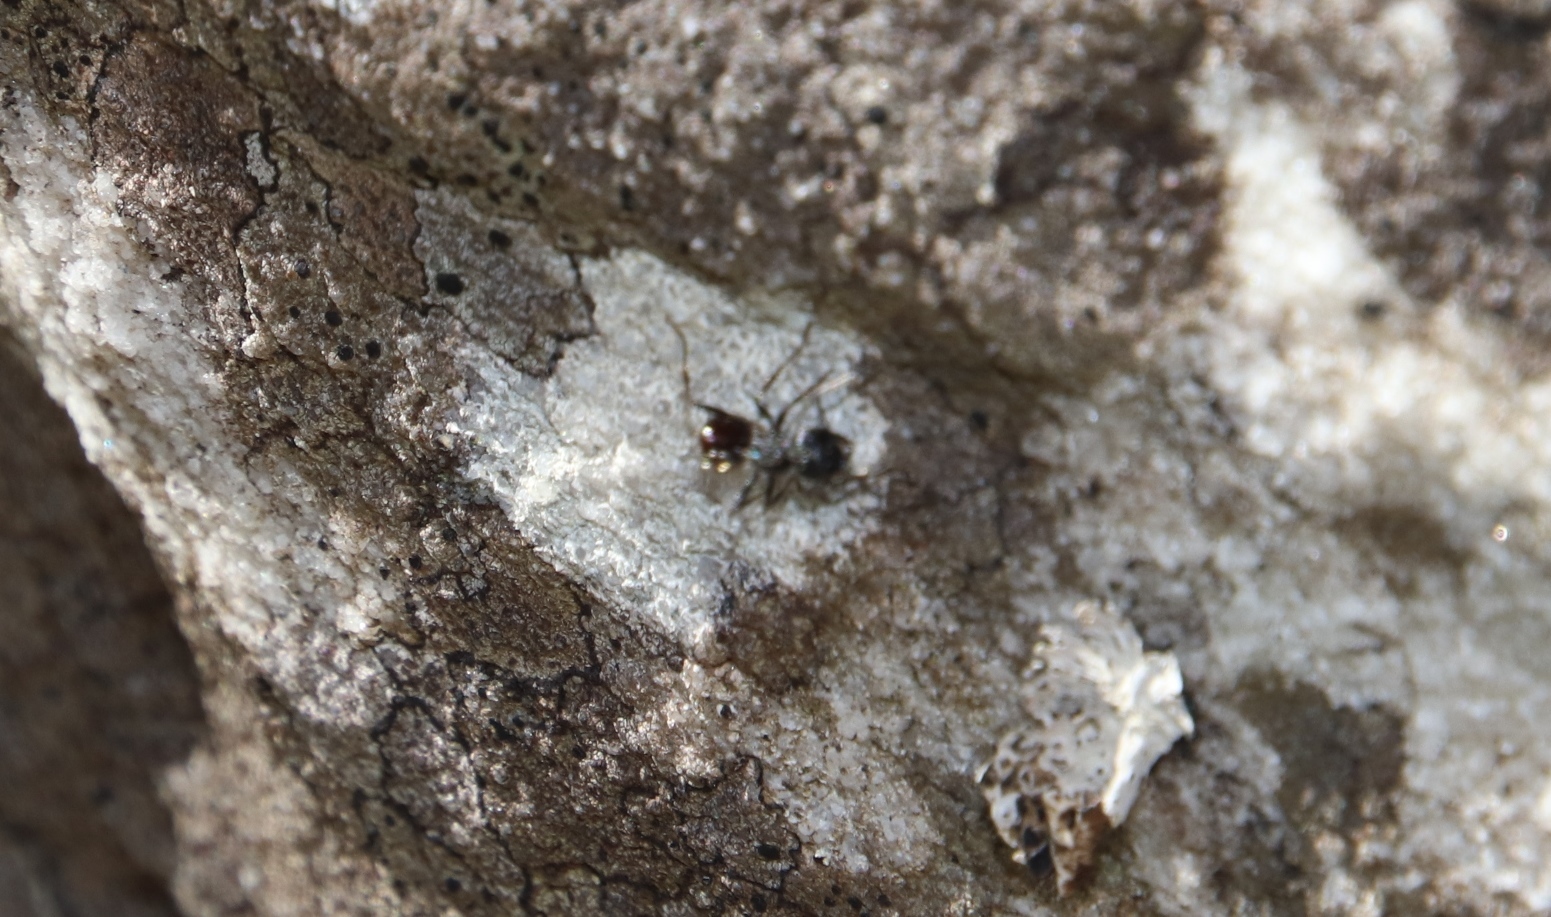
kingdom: Animalia
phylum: Arthropoda
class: Insecta
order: Hymenoptera
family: Formicidae
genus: Myrmicaria
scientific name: Myrmicaria nigra
